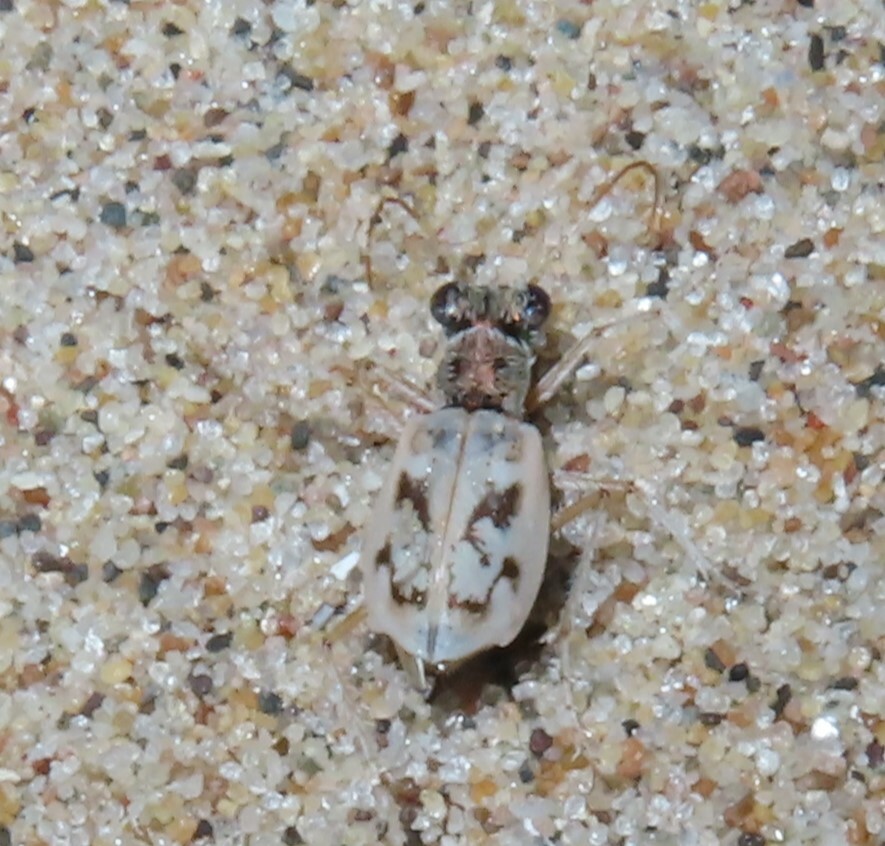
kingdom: Animalia
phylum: Arthropoda
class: Insecta
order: Coleoptera
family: Carabidae
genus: Ellipsoptera
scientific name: Ellipsoptera lepida
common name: Ghost tiger beetle
